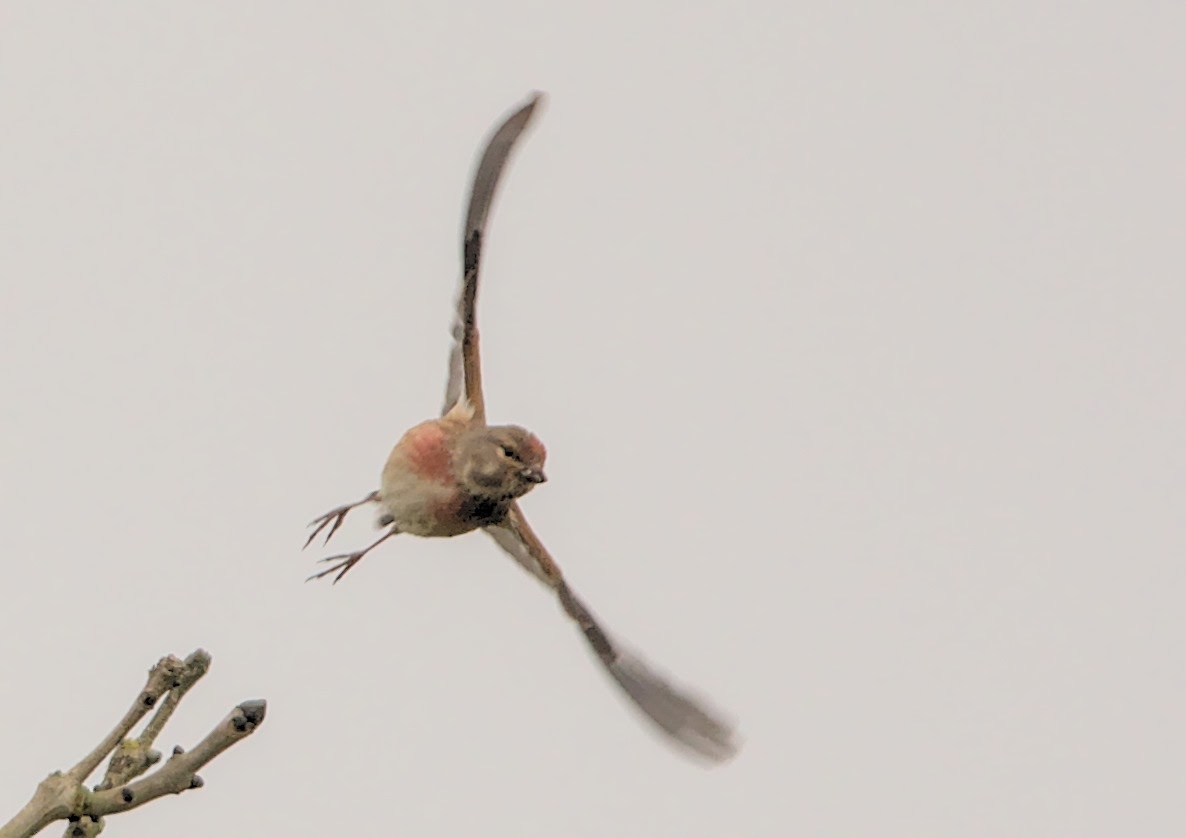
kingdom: Animalia
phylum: Chordata
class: Aves
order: Passeriformes
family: Fringillidae
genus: Linaria
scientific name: Linaria cannabina
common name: Common linnet
